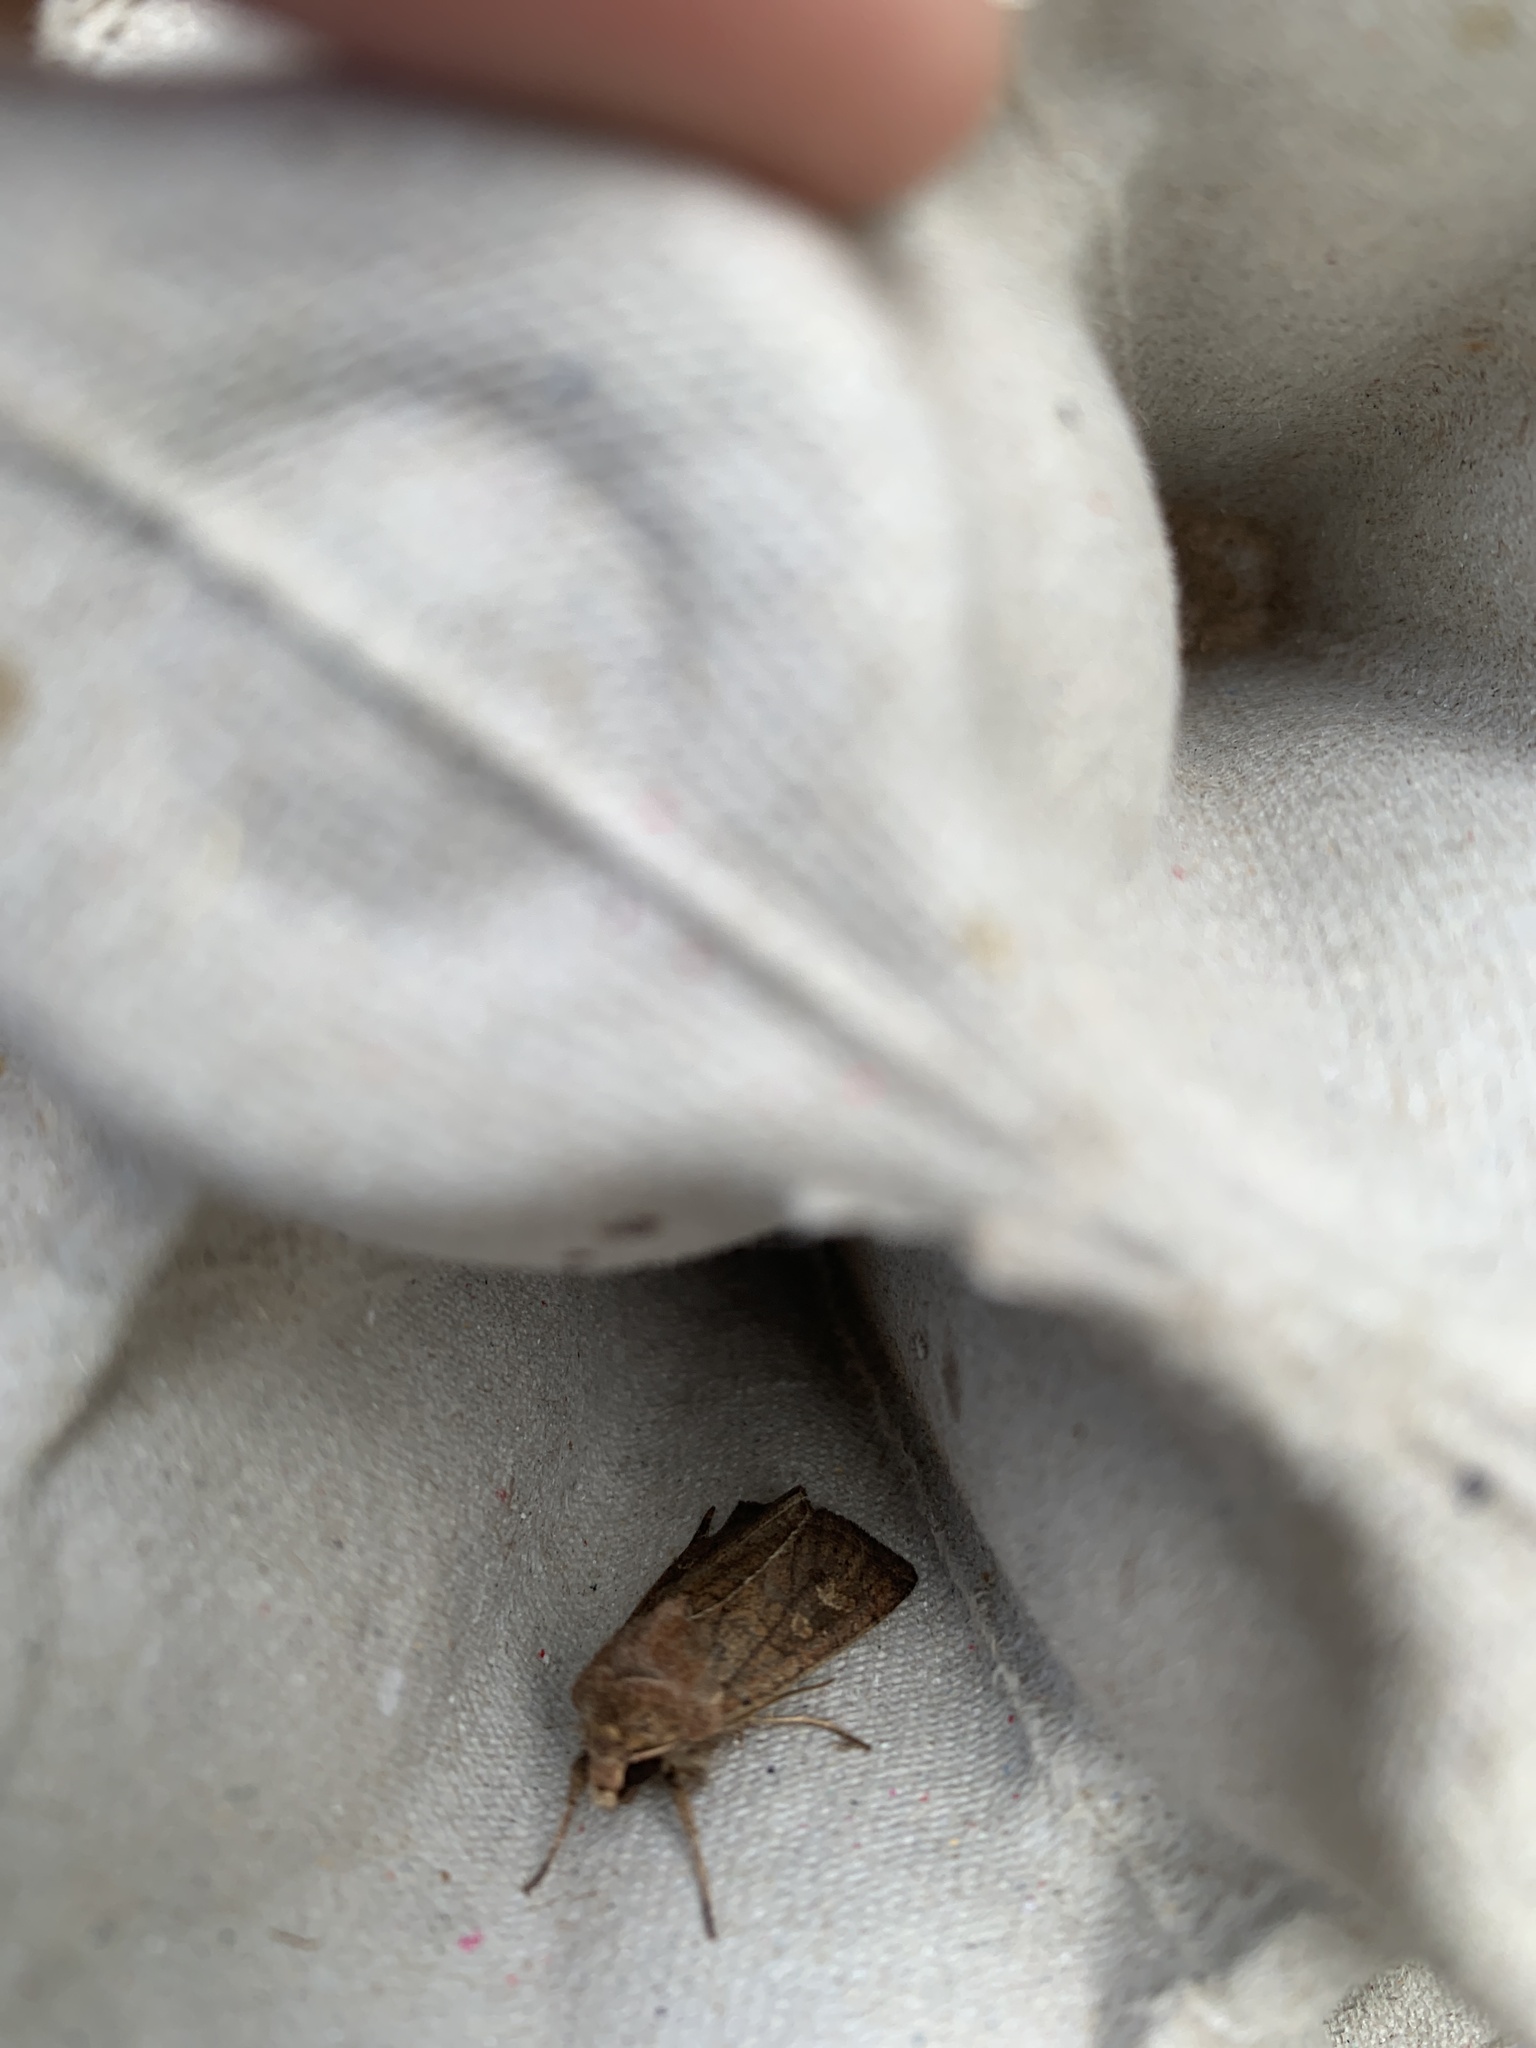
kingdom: Animalia
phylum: Arthropoda
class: Insecta
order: Lepidoptera
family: Noctuidae
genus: Xestia
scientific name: Xestia xanthographa
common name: Square-spot rustic
